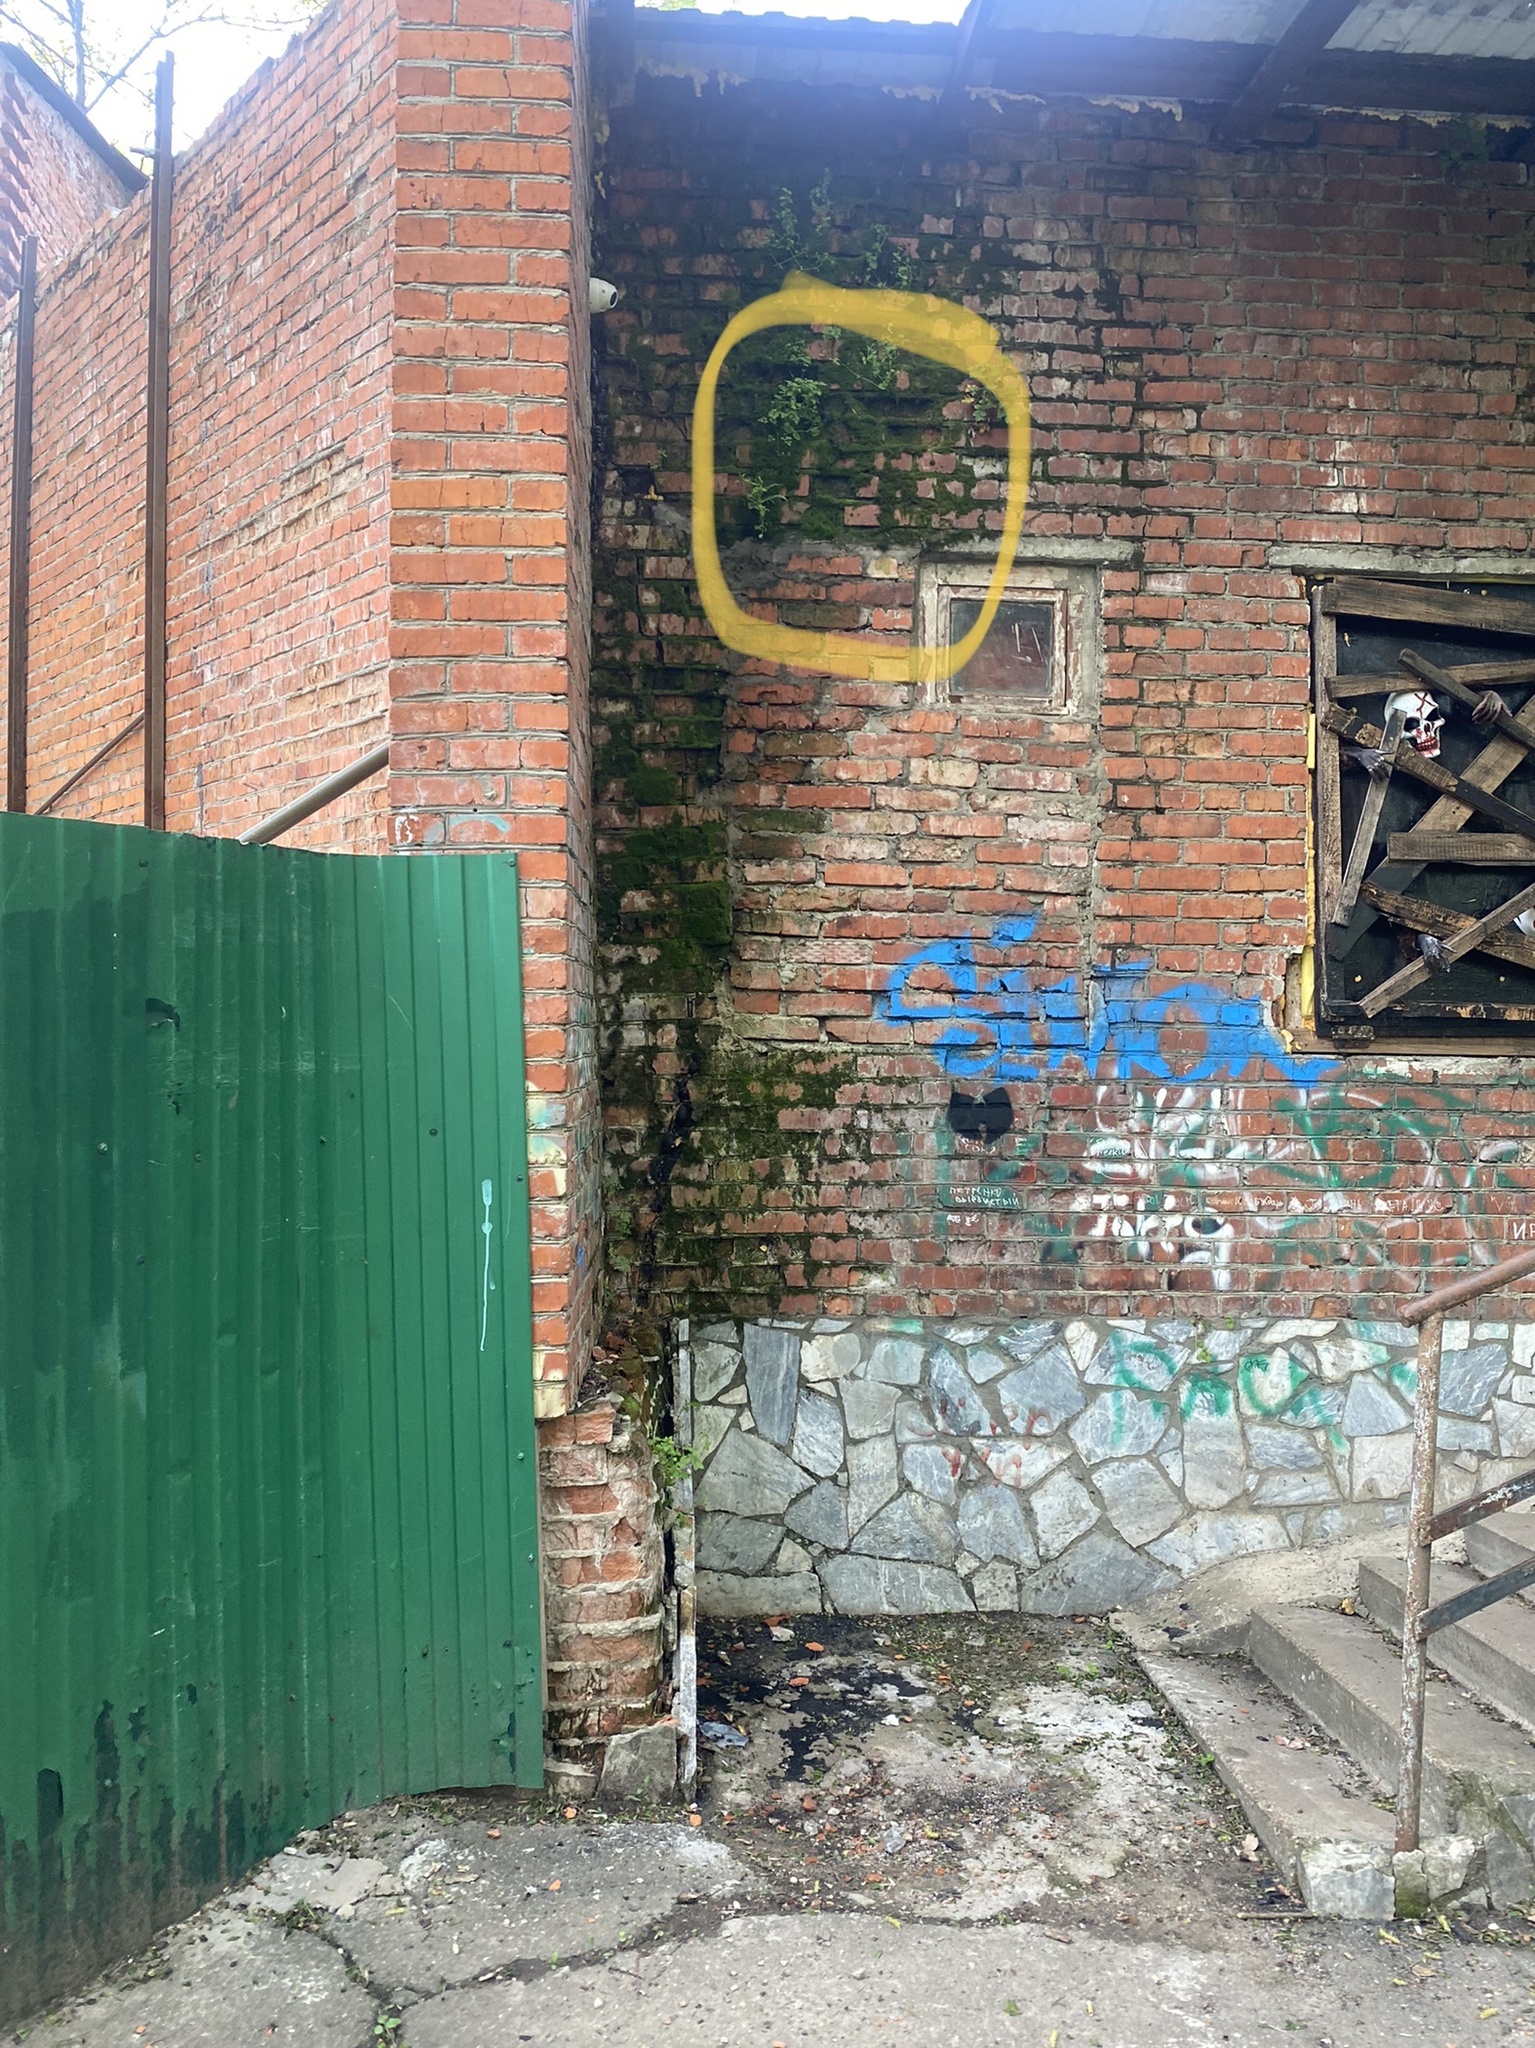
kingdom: Plantae
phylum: Tracheophyta
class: Polypodiopsida
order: Polypodiales
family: Aspleniaceae
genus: Asplenium
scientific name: Asplenium trichomanes
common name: Maidenhair spleenwort
